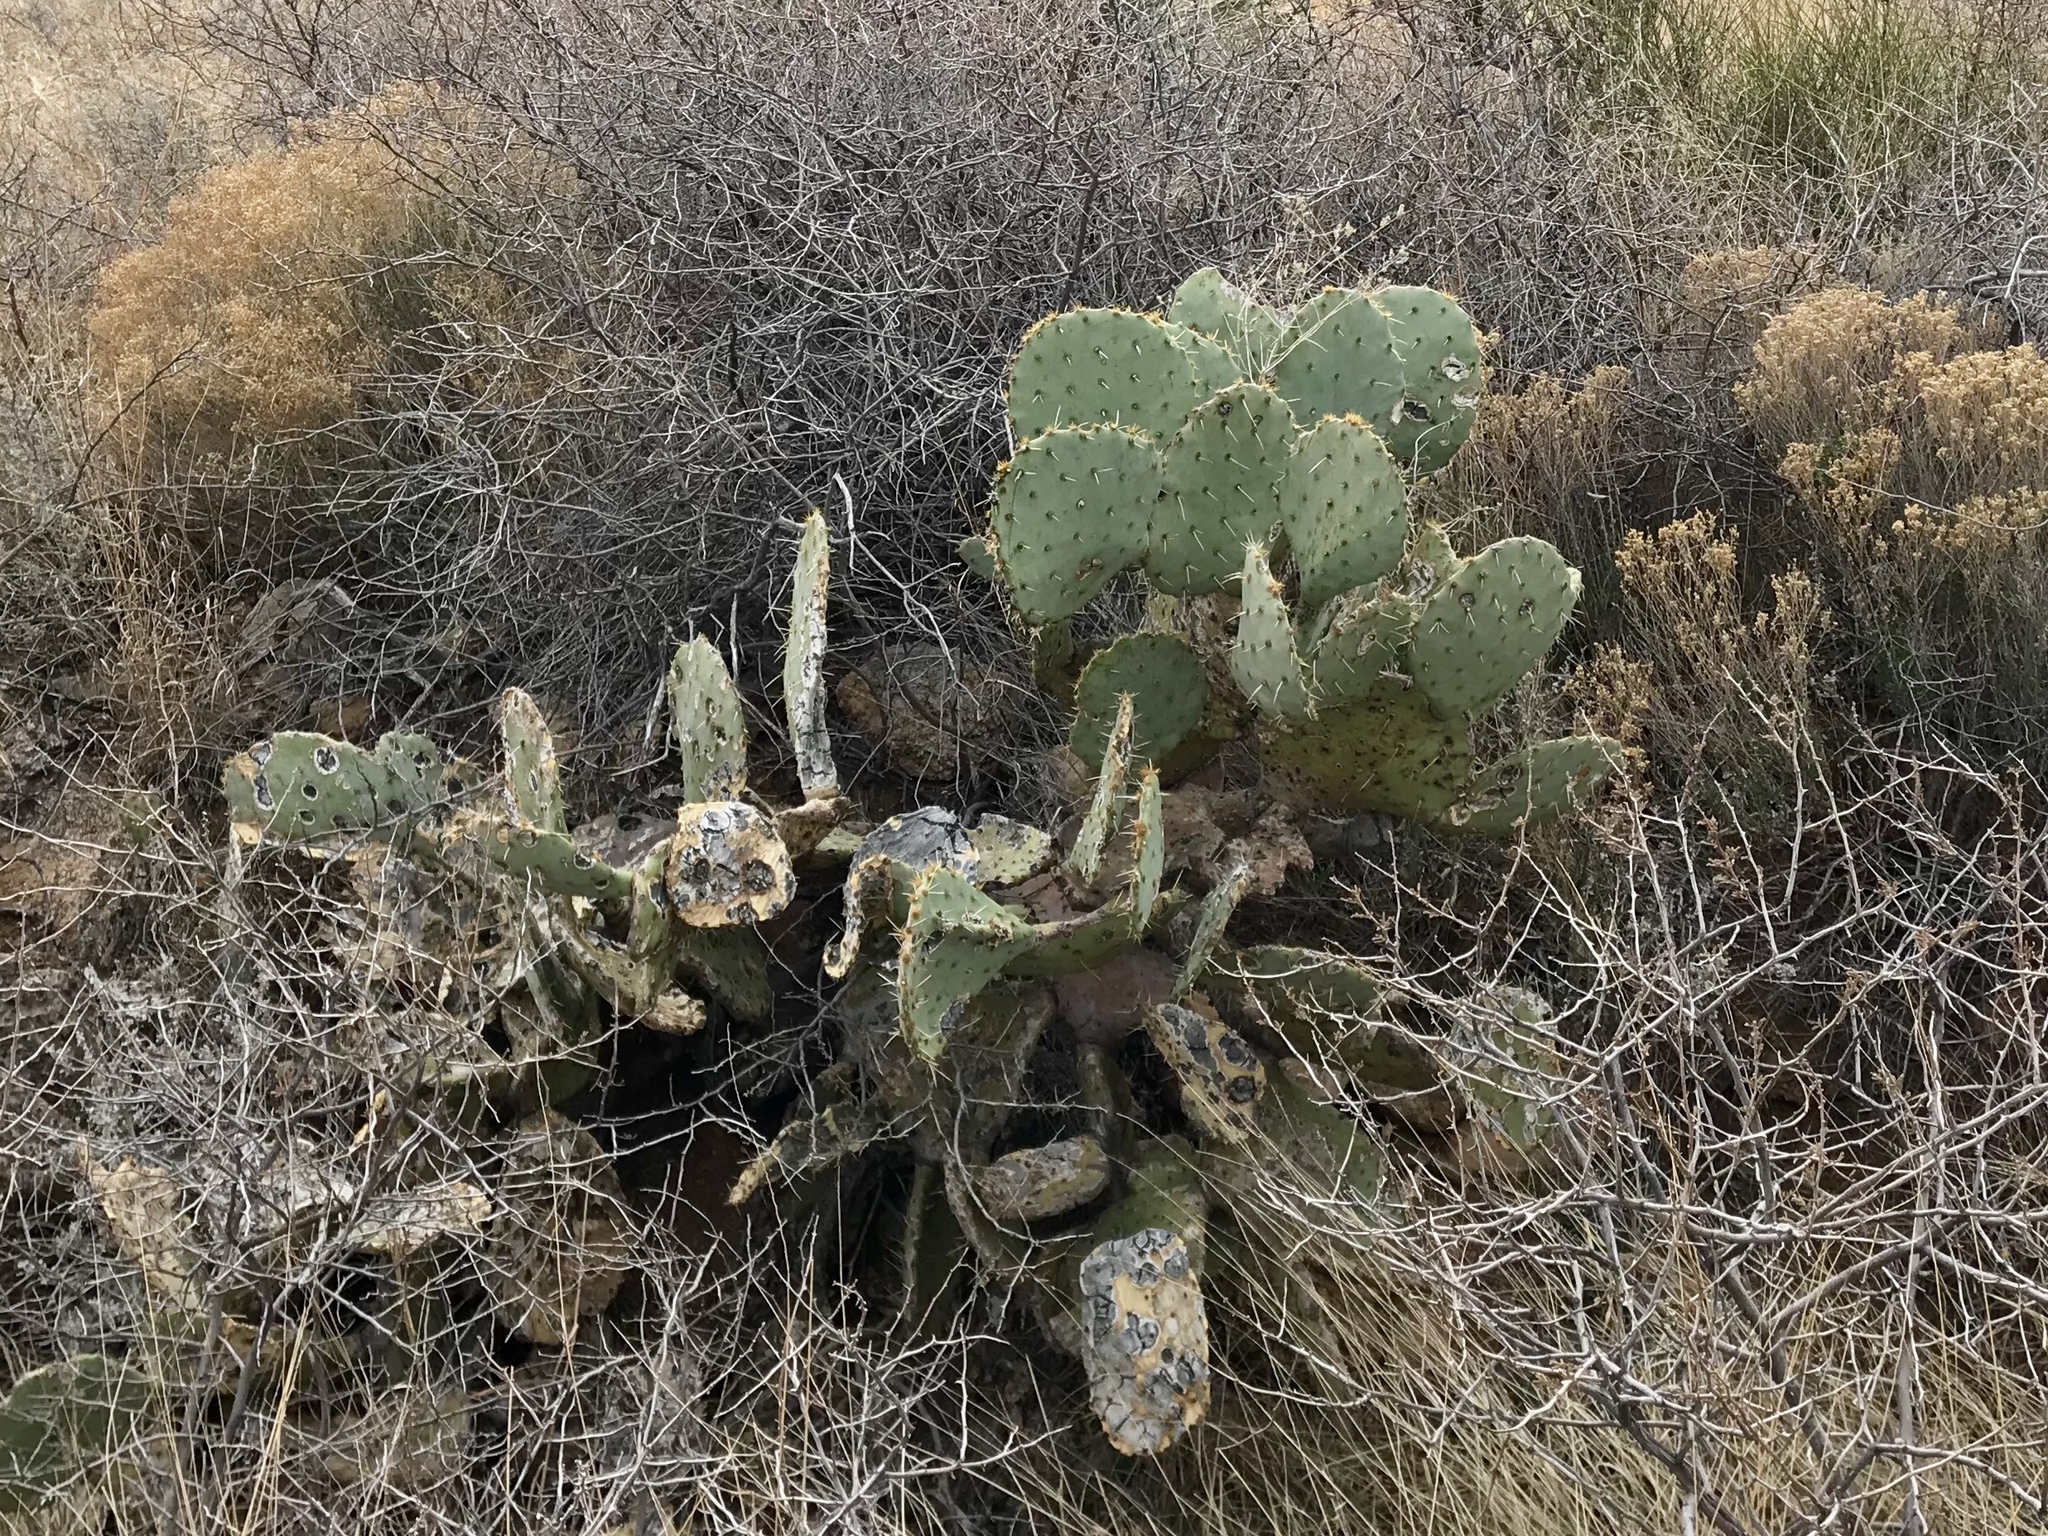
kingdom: Plantae
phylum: Tracheophyta
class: Magnoliopsida
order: Caryophyllales
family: Cactaceae
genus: Opuntia
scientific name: Opuntia engelmannii
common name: Cactus-apple
